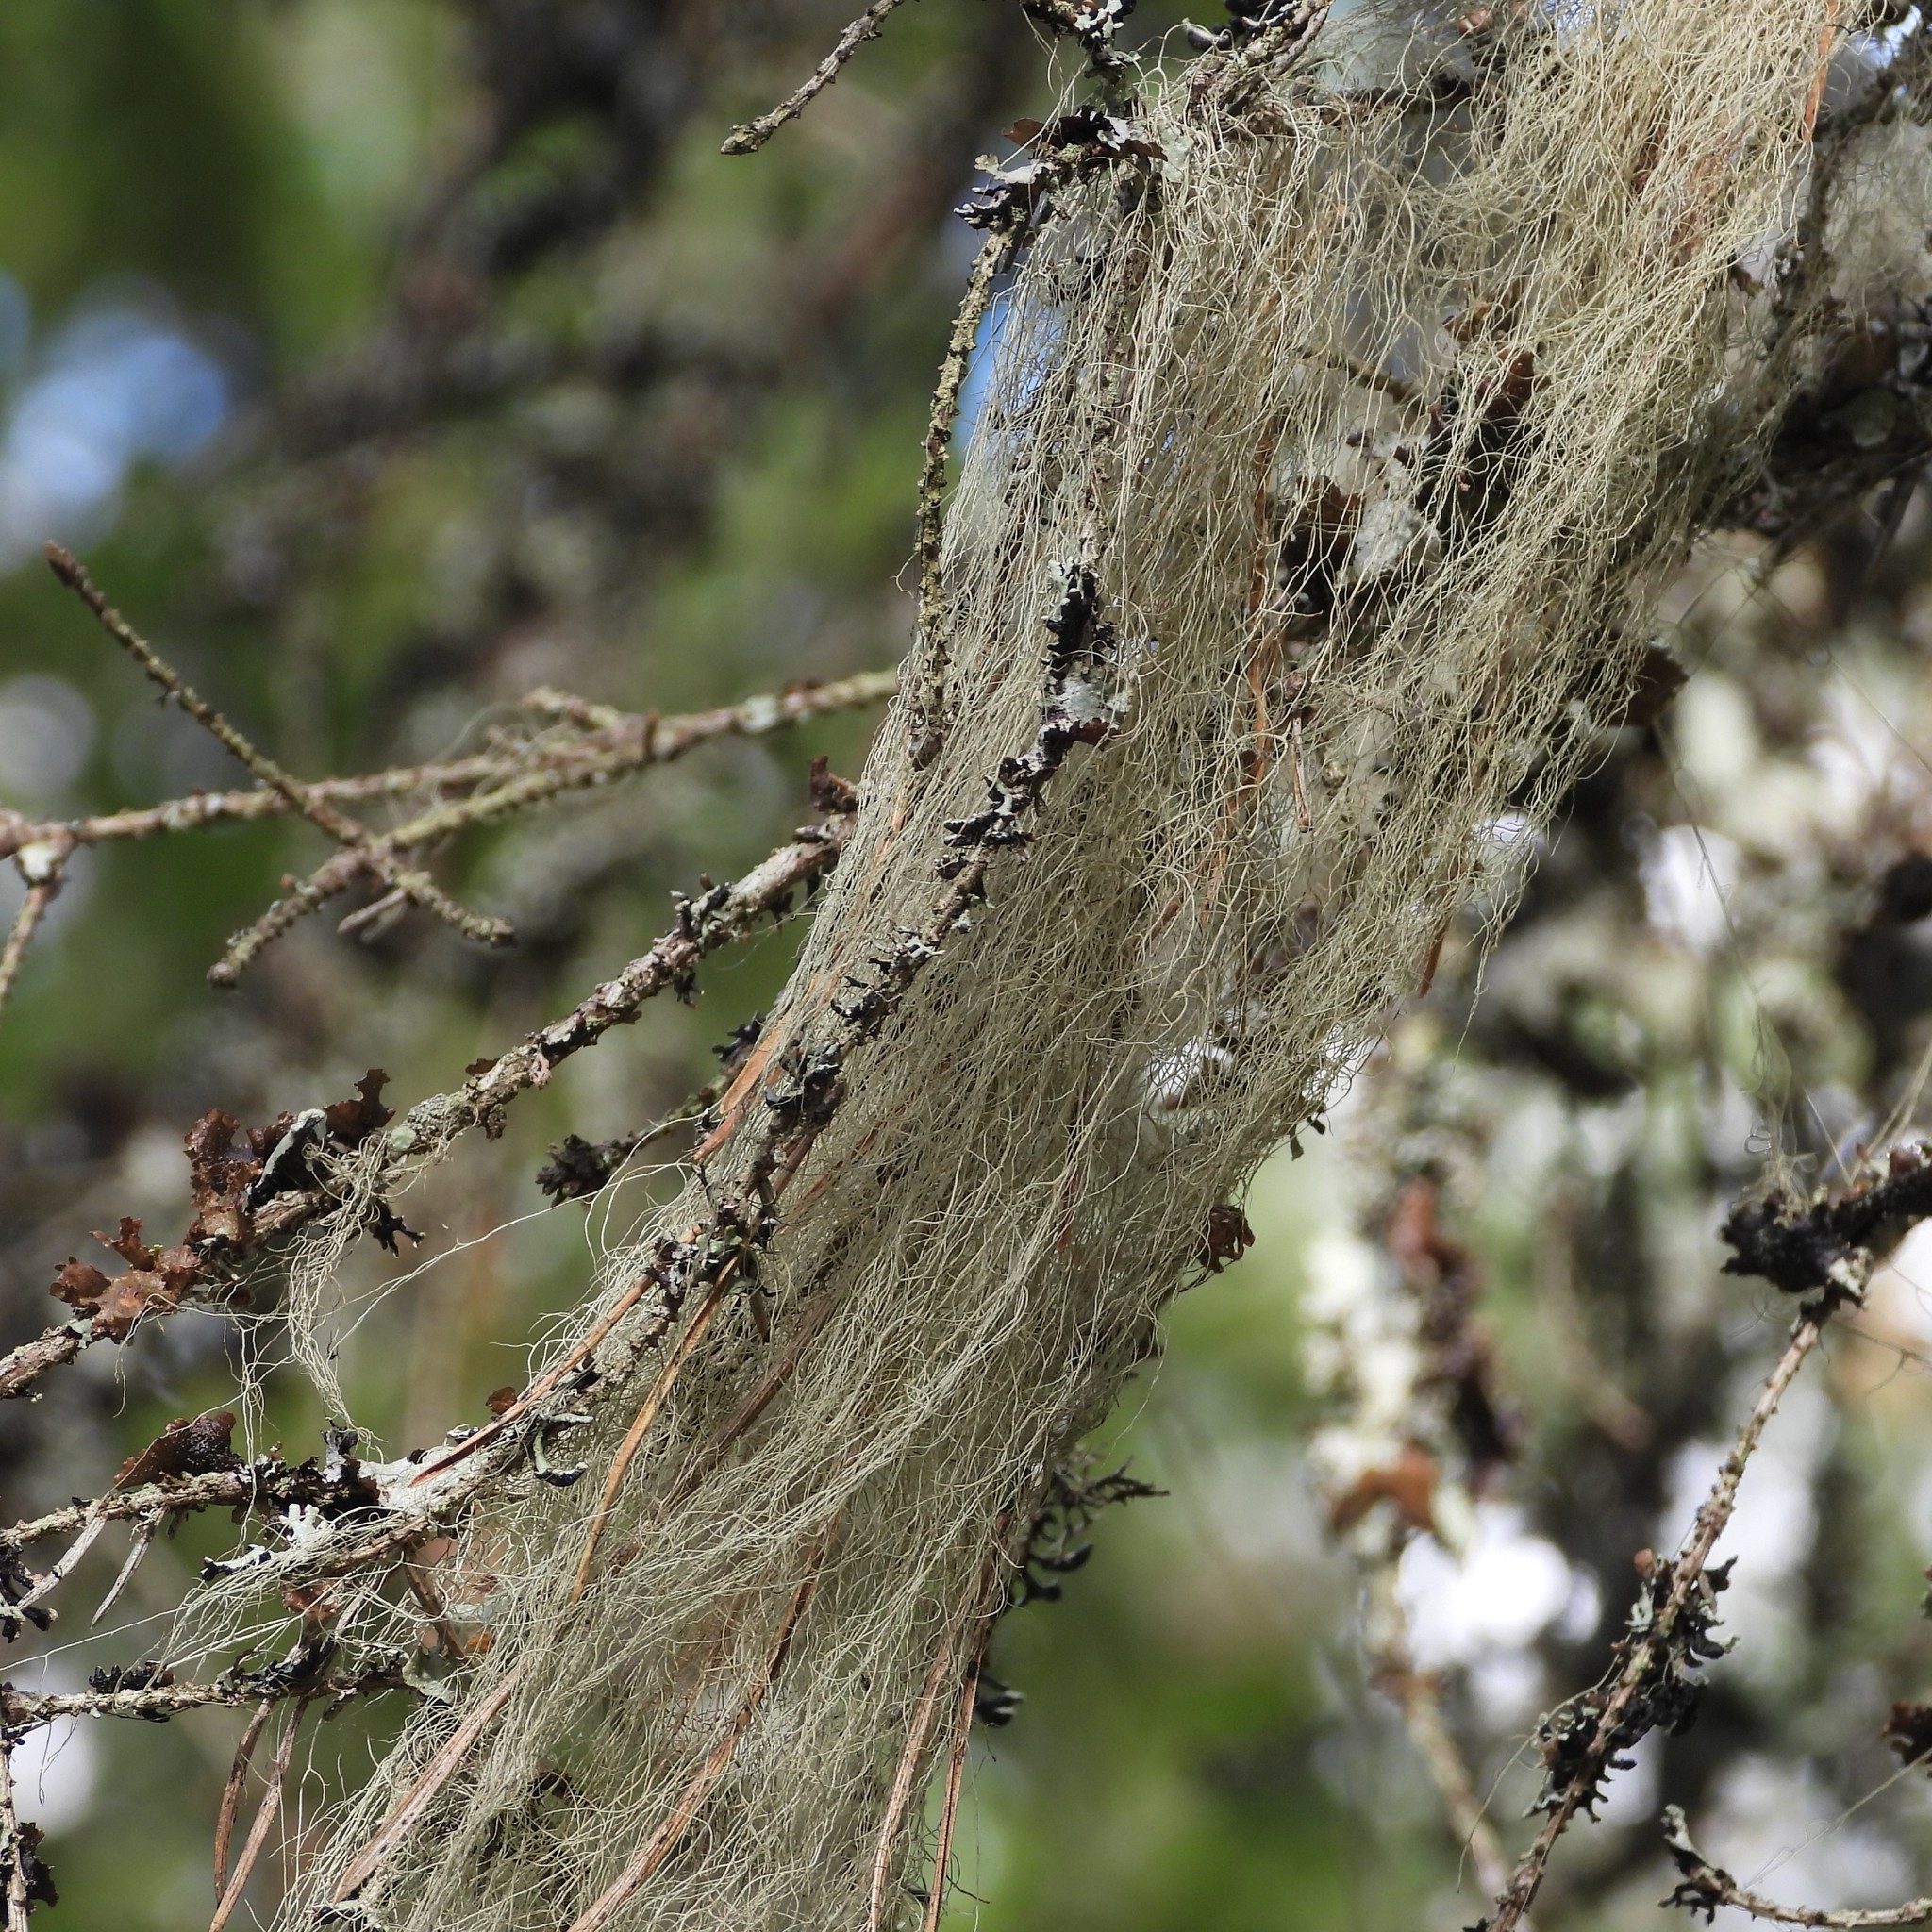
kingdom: Fungi
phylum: Ascomycota
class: Lecanoromycetes
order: Lecanorales
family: Parmeliaceae
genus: Bryoria
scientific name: Bryoria fuscescens
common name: Pale-footed horsehair lichen
